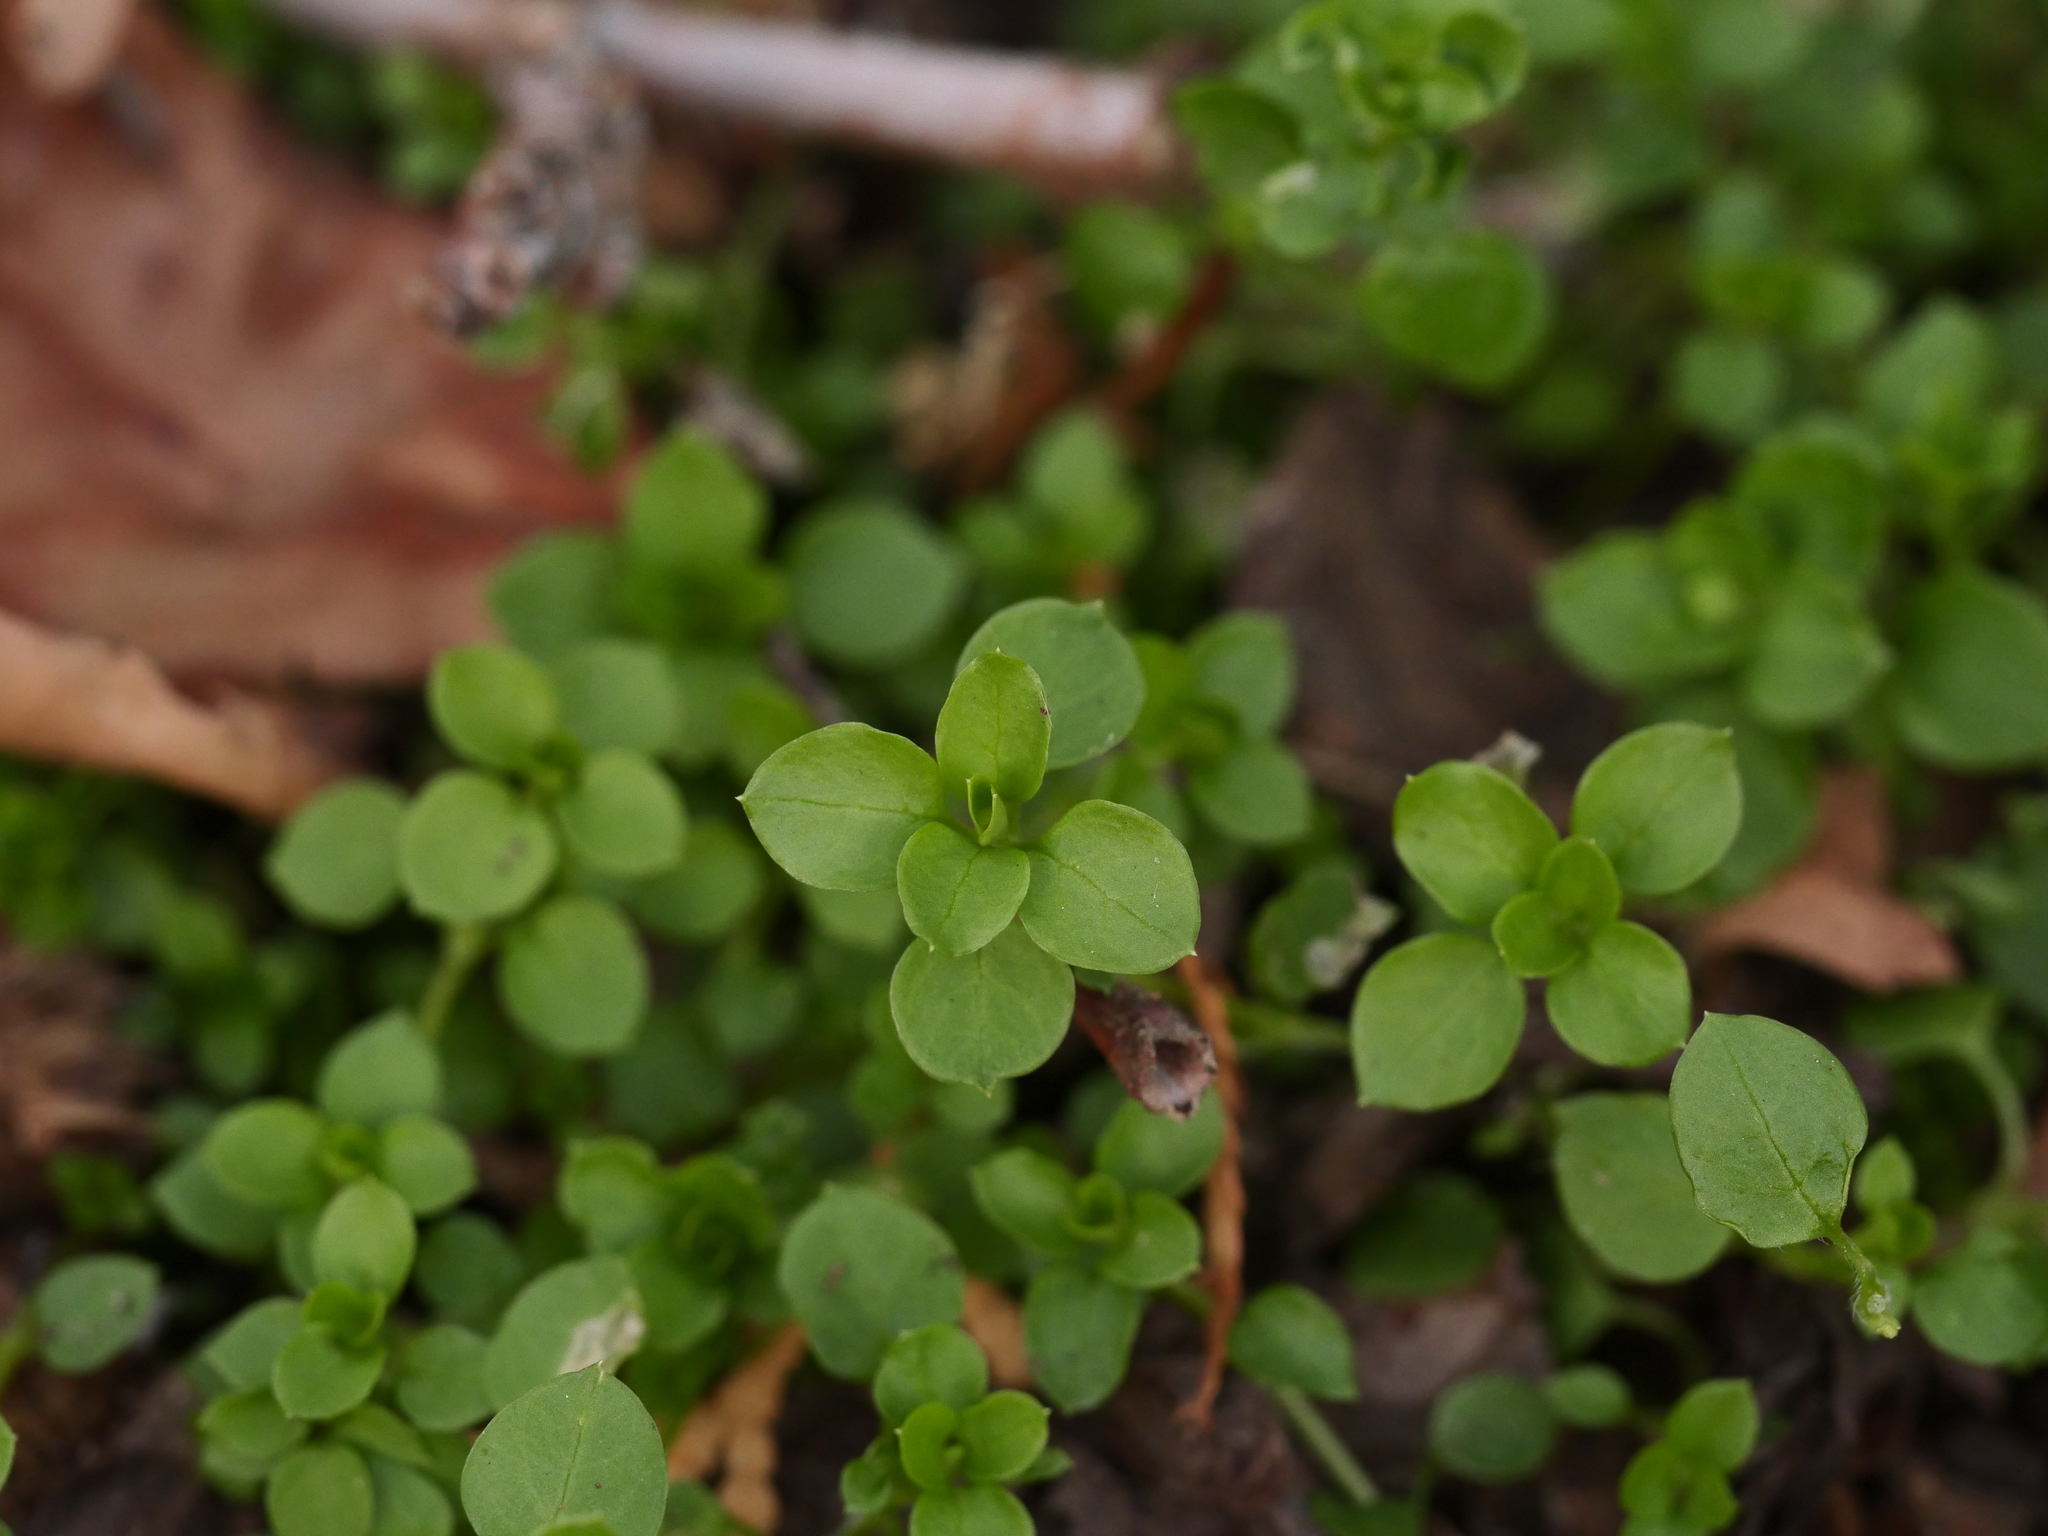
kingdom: Plantae
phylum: Tracheophyta
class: Magnoliopsida
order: Caryophyllales
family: Caryophyllaceae
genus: Stellaria
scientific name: Stellaria media
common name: Common chickweed
